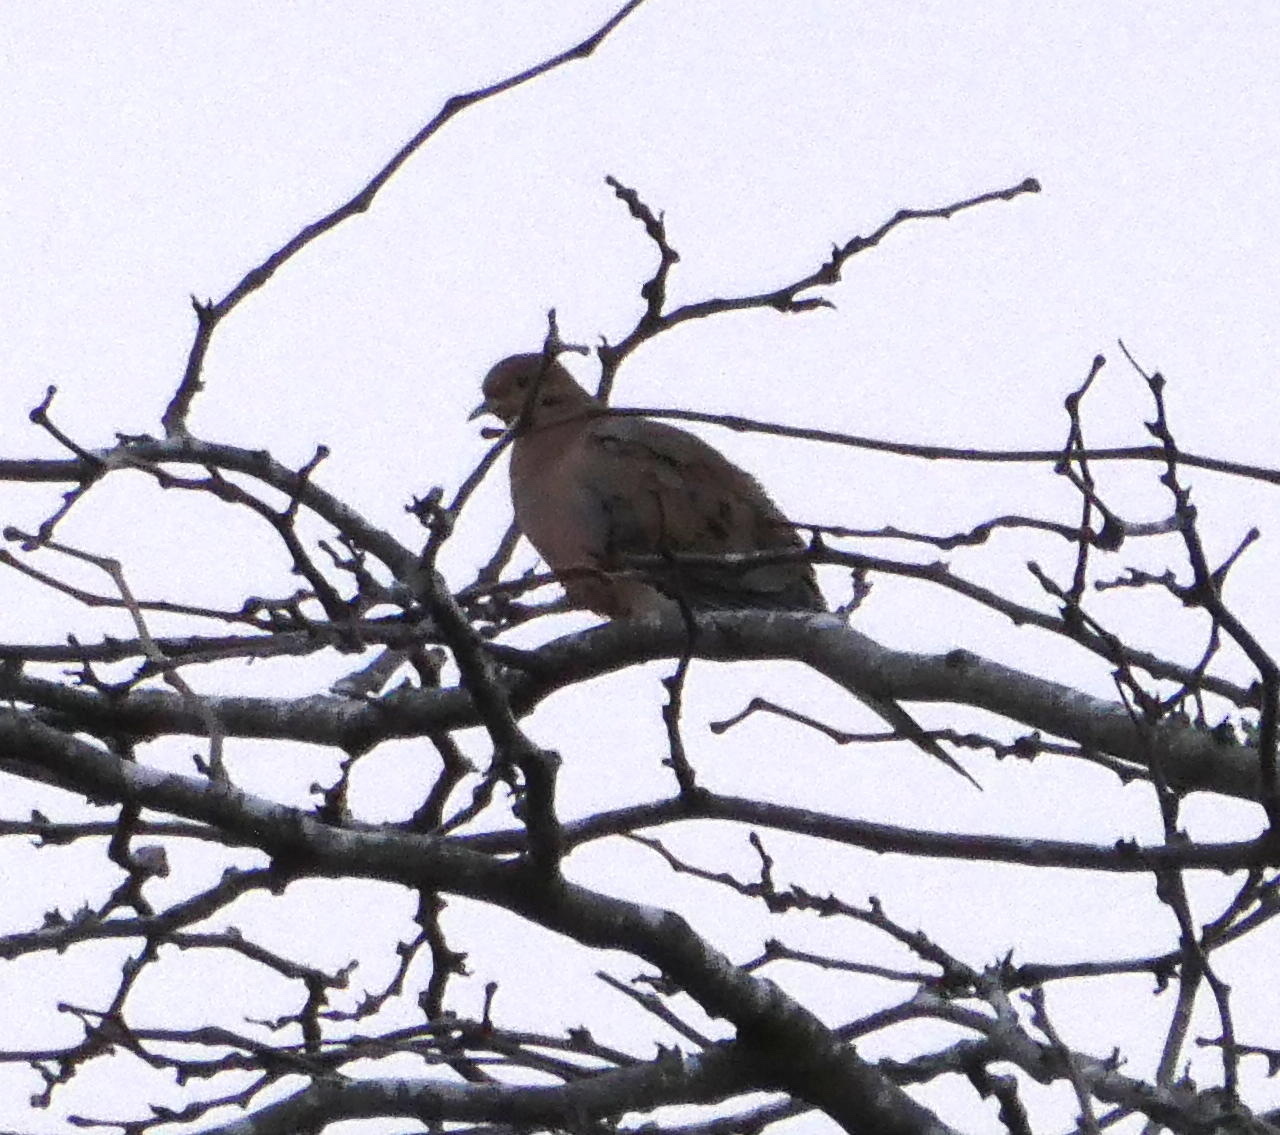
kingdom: Animalia
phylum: Chordata
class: Aves
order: Columbiformes
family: Columbidae
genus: Zenaida
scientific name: Zenaida macroura
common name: Mourning dove
